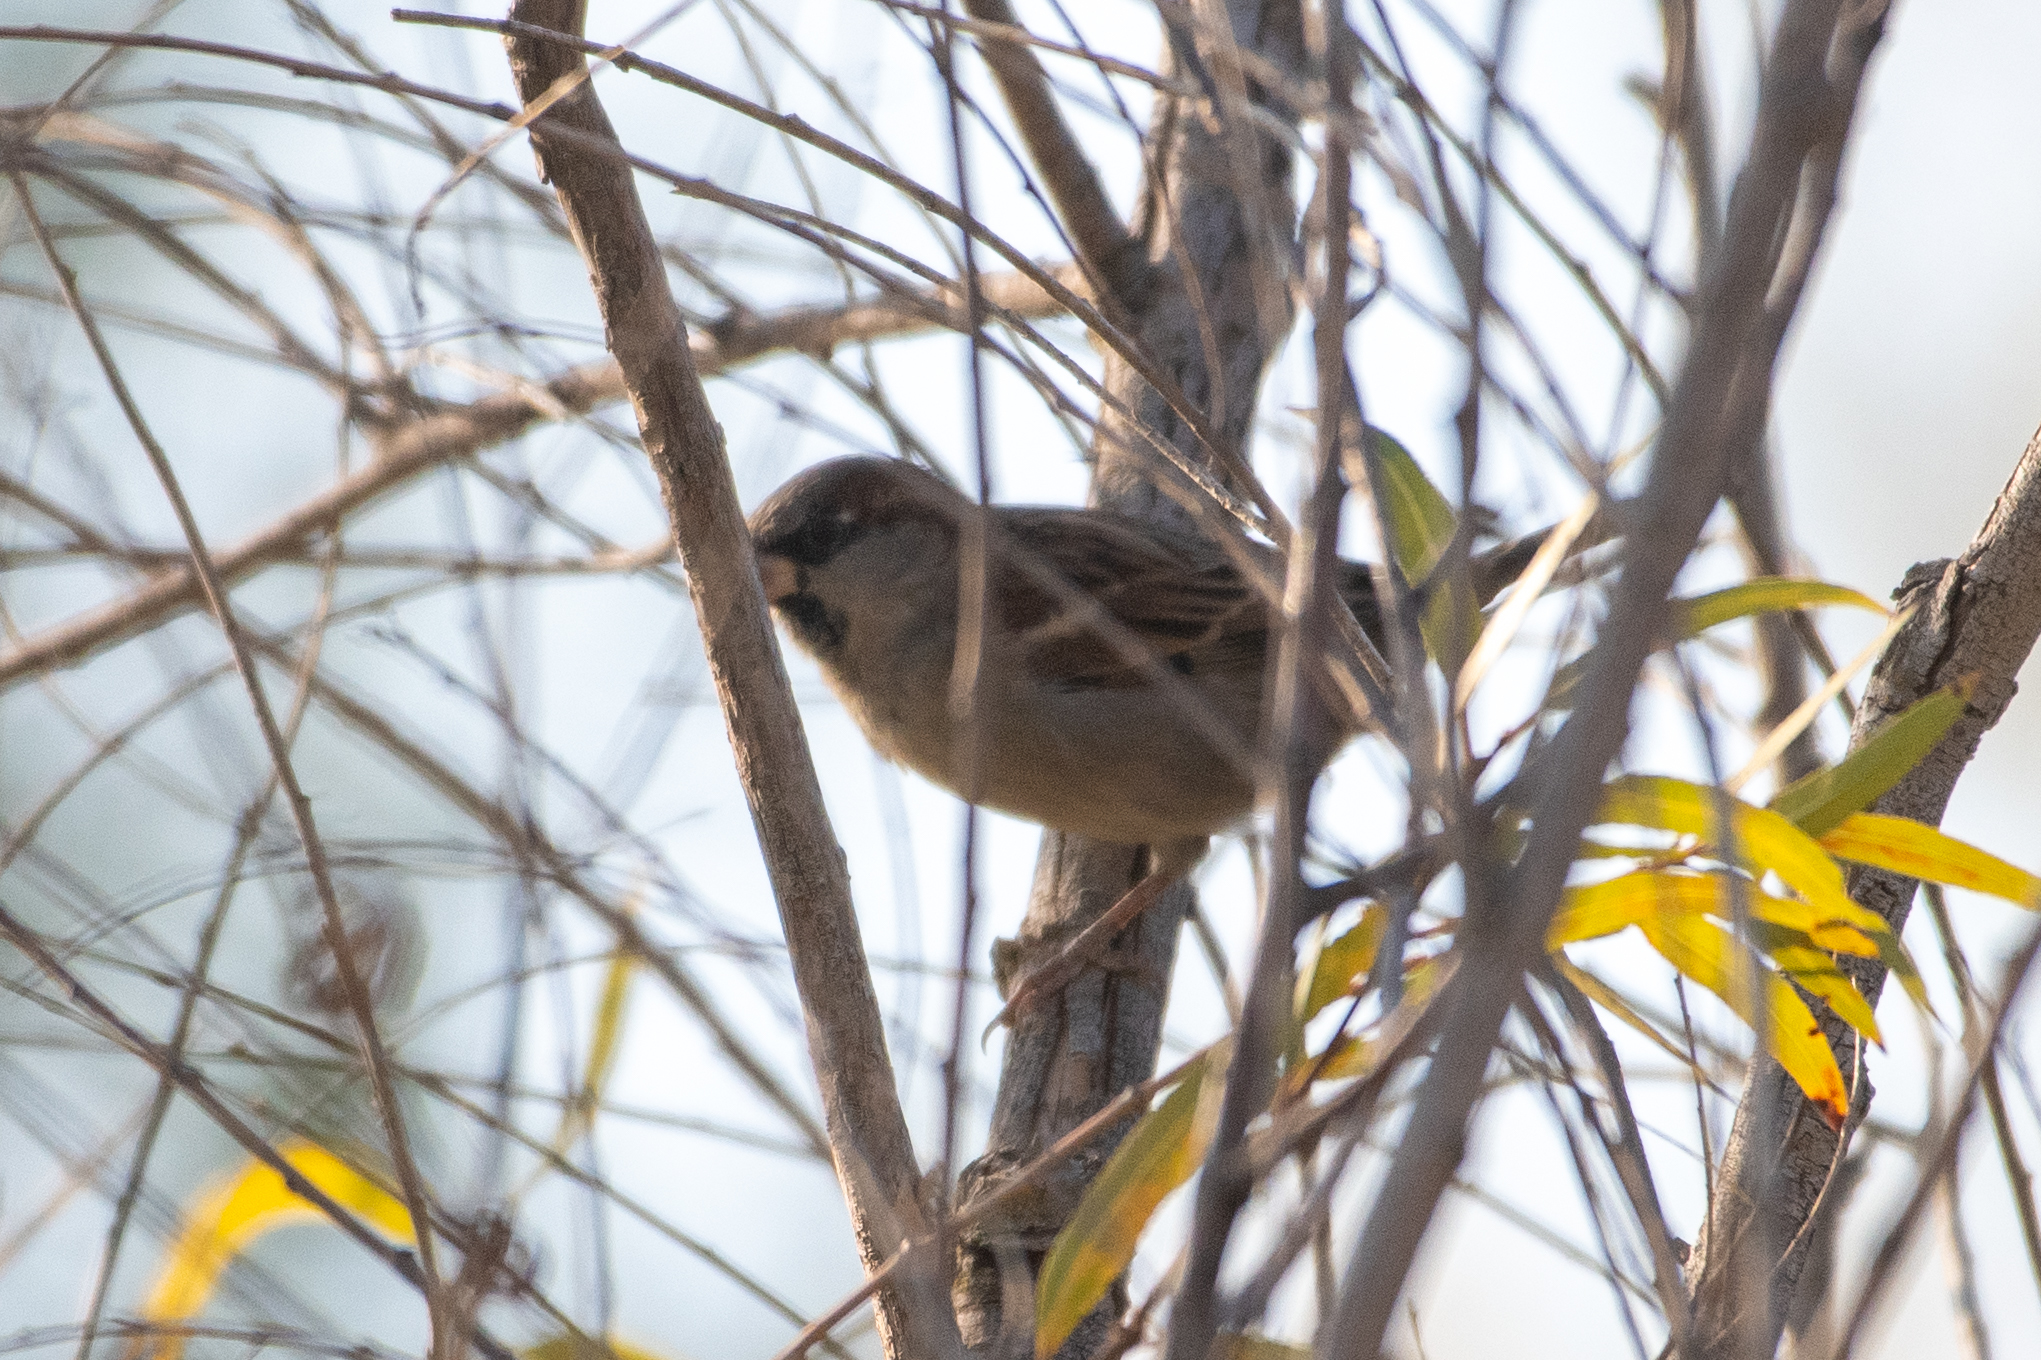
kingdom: Animalia
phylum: Chordata
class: Aves
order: Passeriformes
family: Passeridae
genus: Passer
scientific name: Passer domesticus
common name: House sparrow
